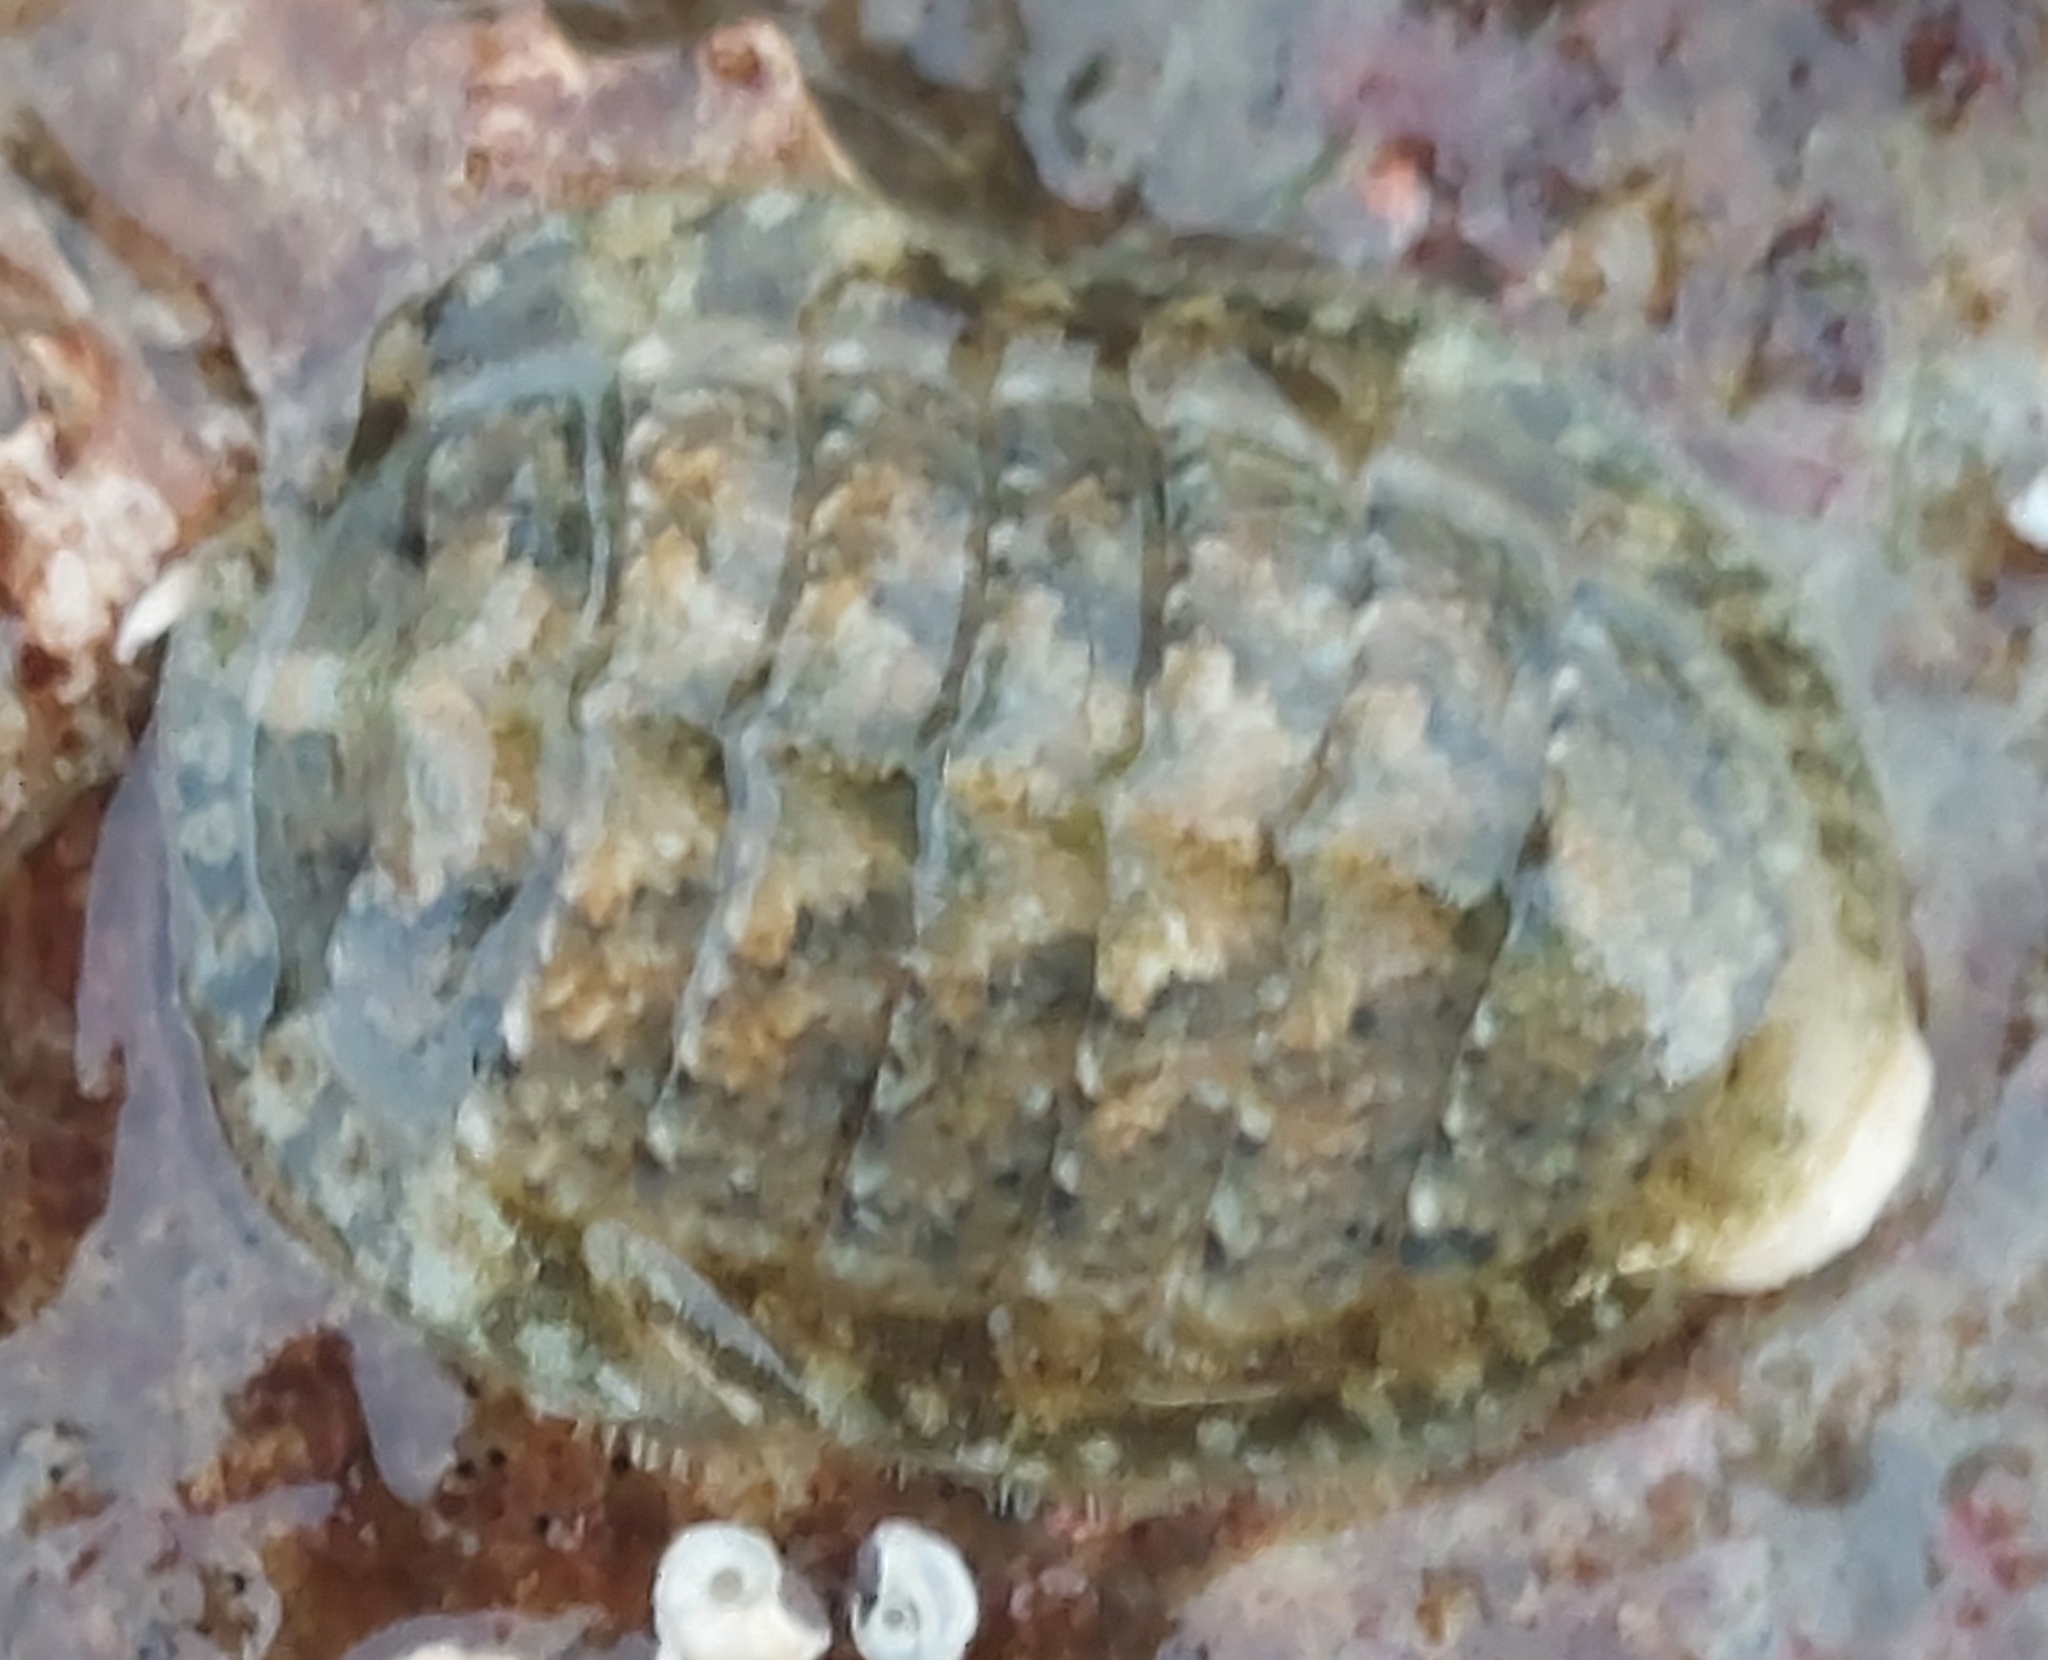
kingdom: Animalia
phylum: Mollusca
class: Polyplacophora
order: Chitonida
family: Tonicellidae
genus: Lepidochitona
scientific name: Lepidochitona cinerea
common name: Cinereous chiton
